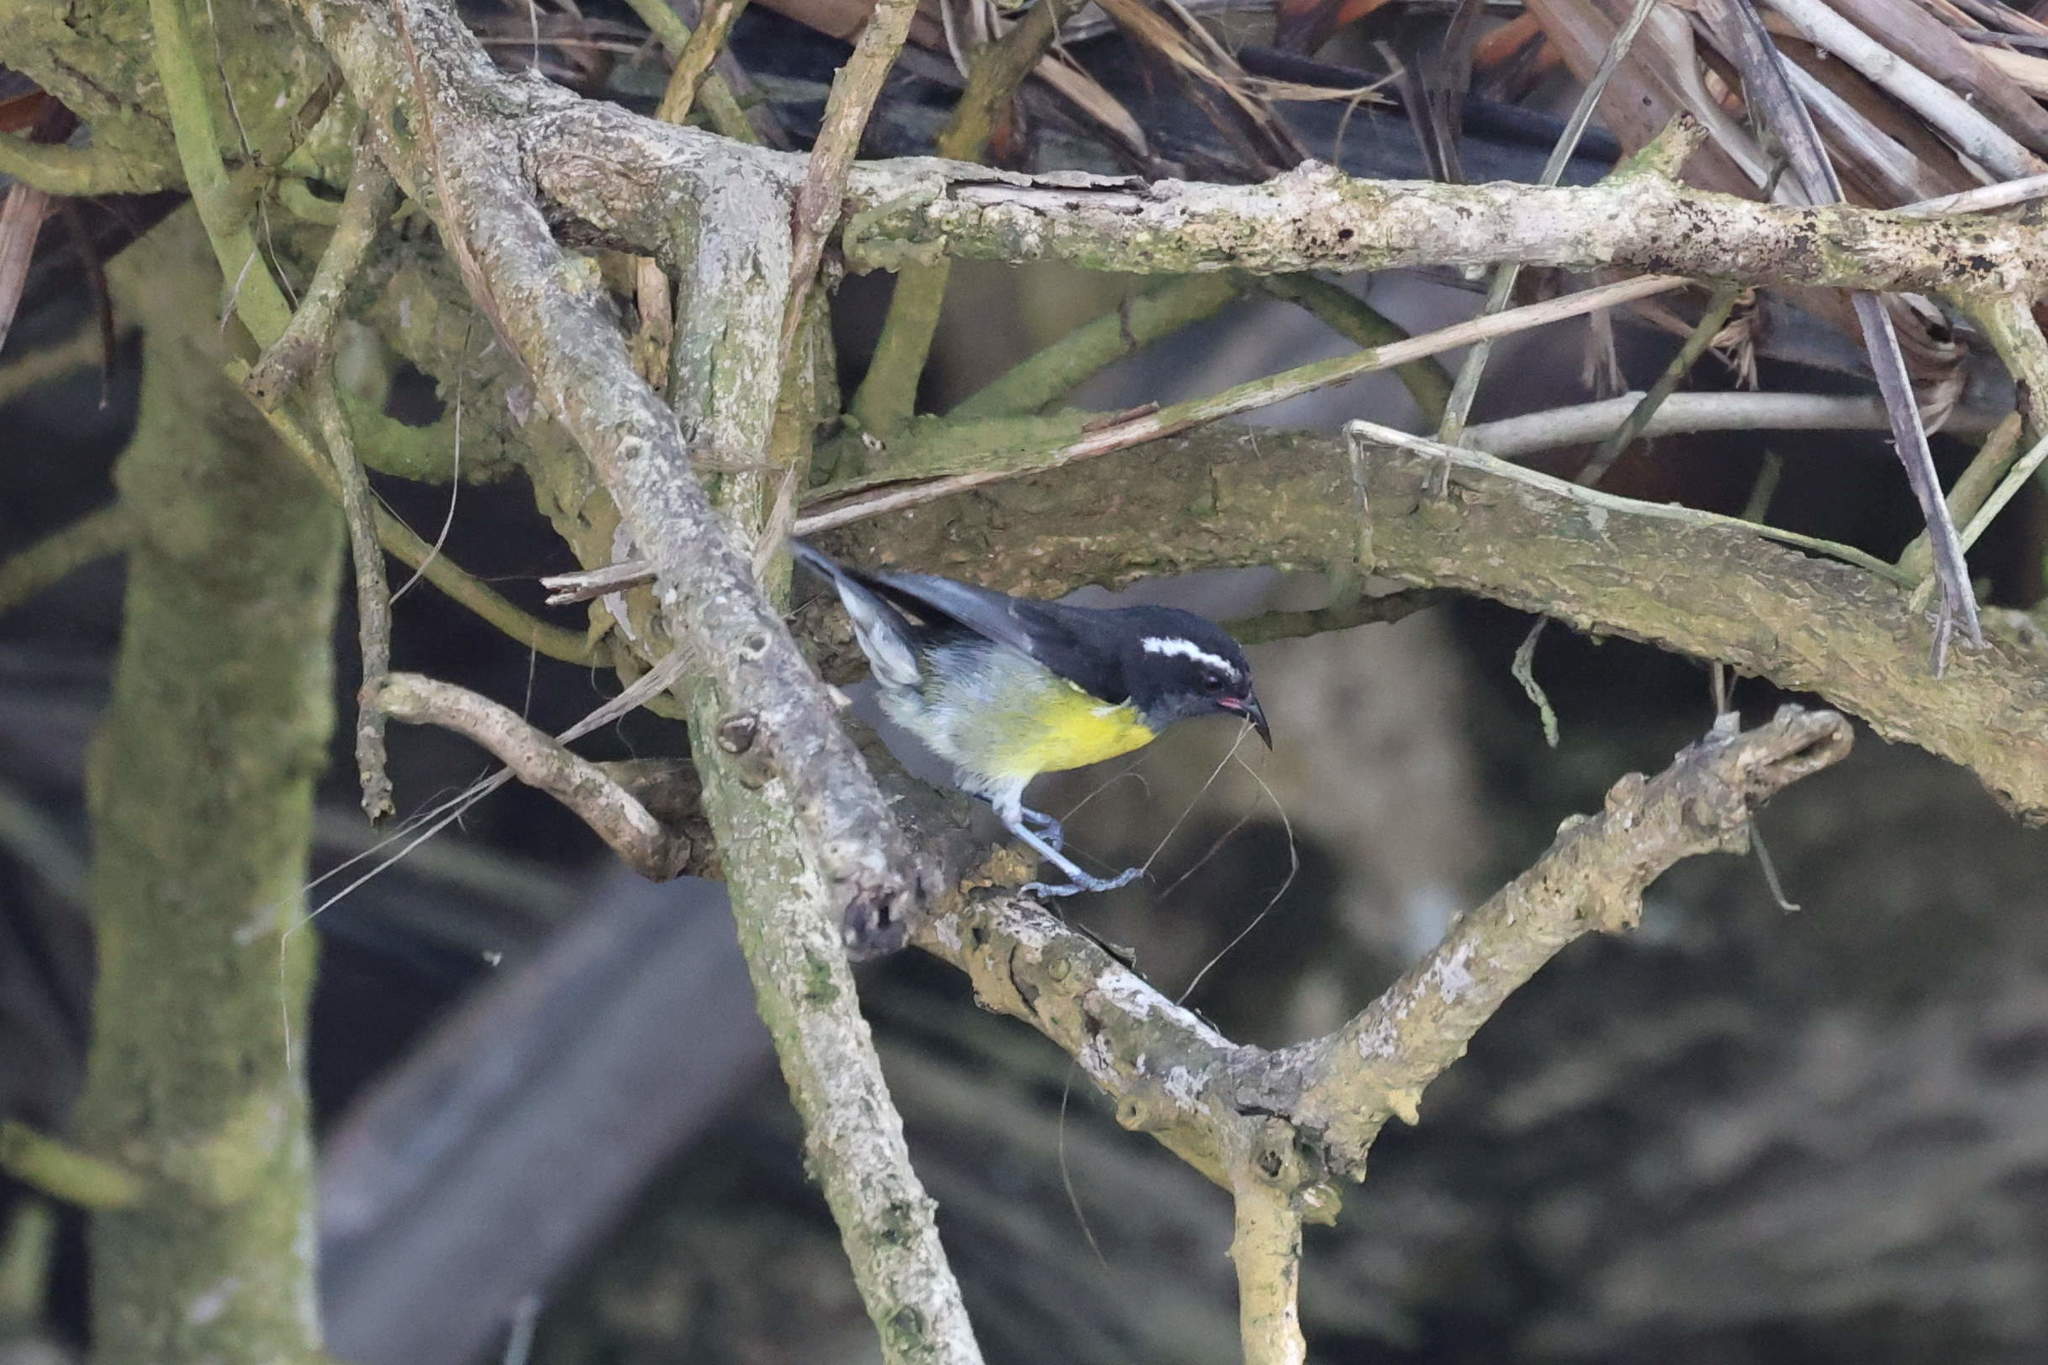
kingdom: Animalia
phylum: Chordata
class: Aves
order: Passeriformes
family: Thraupidae
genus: Coereba
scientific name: Coereba flaveola
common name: Bananaquit
